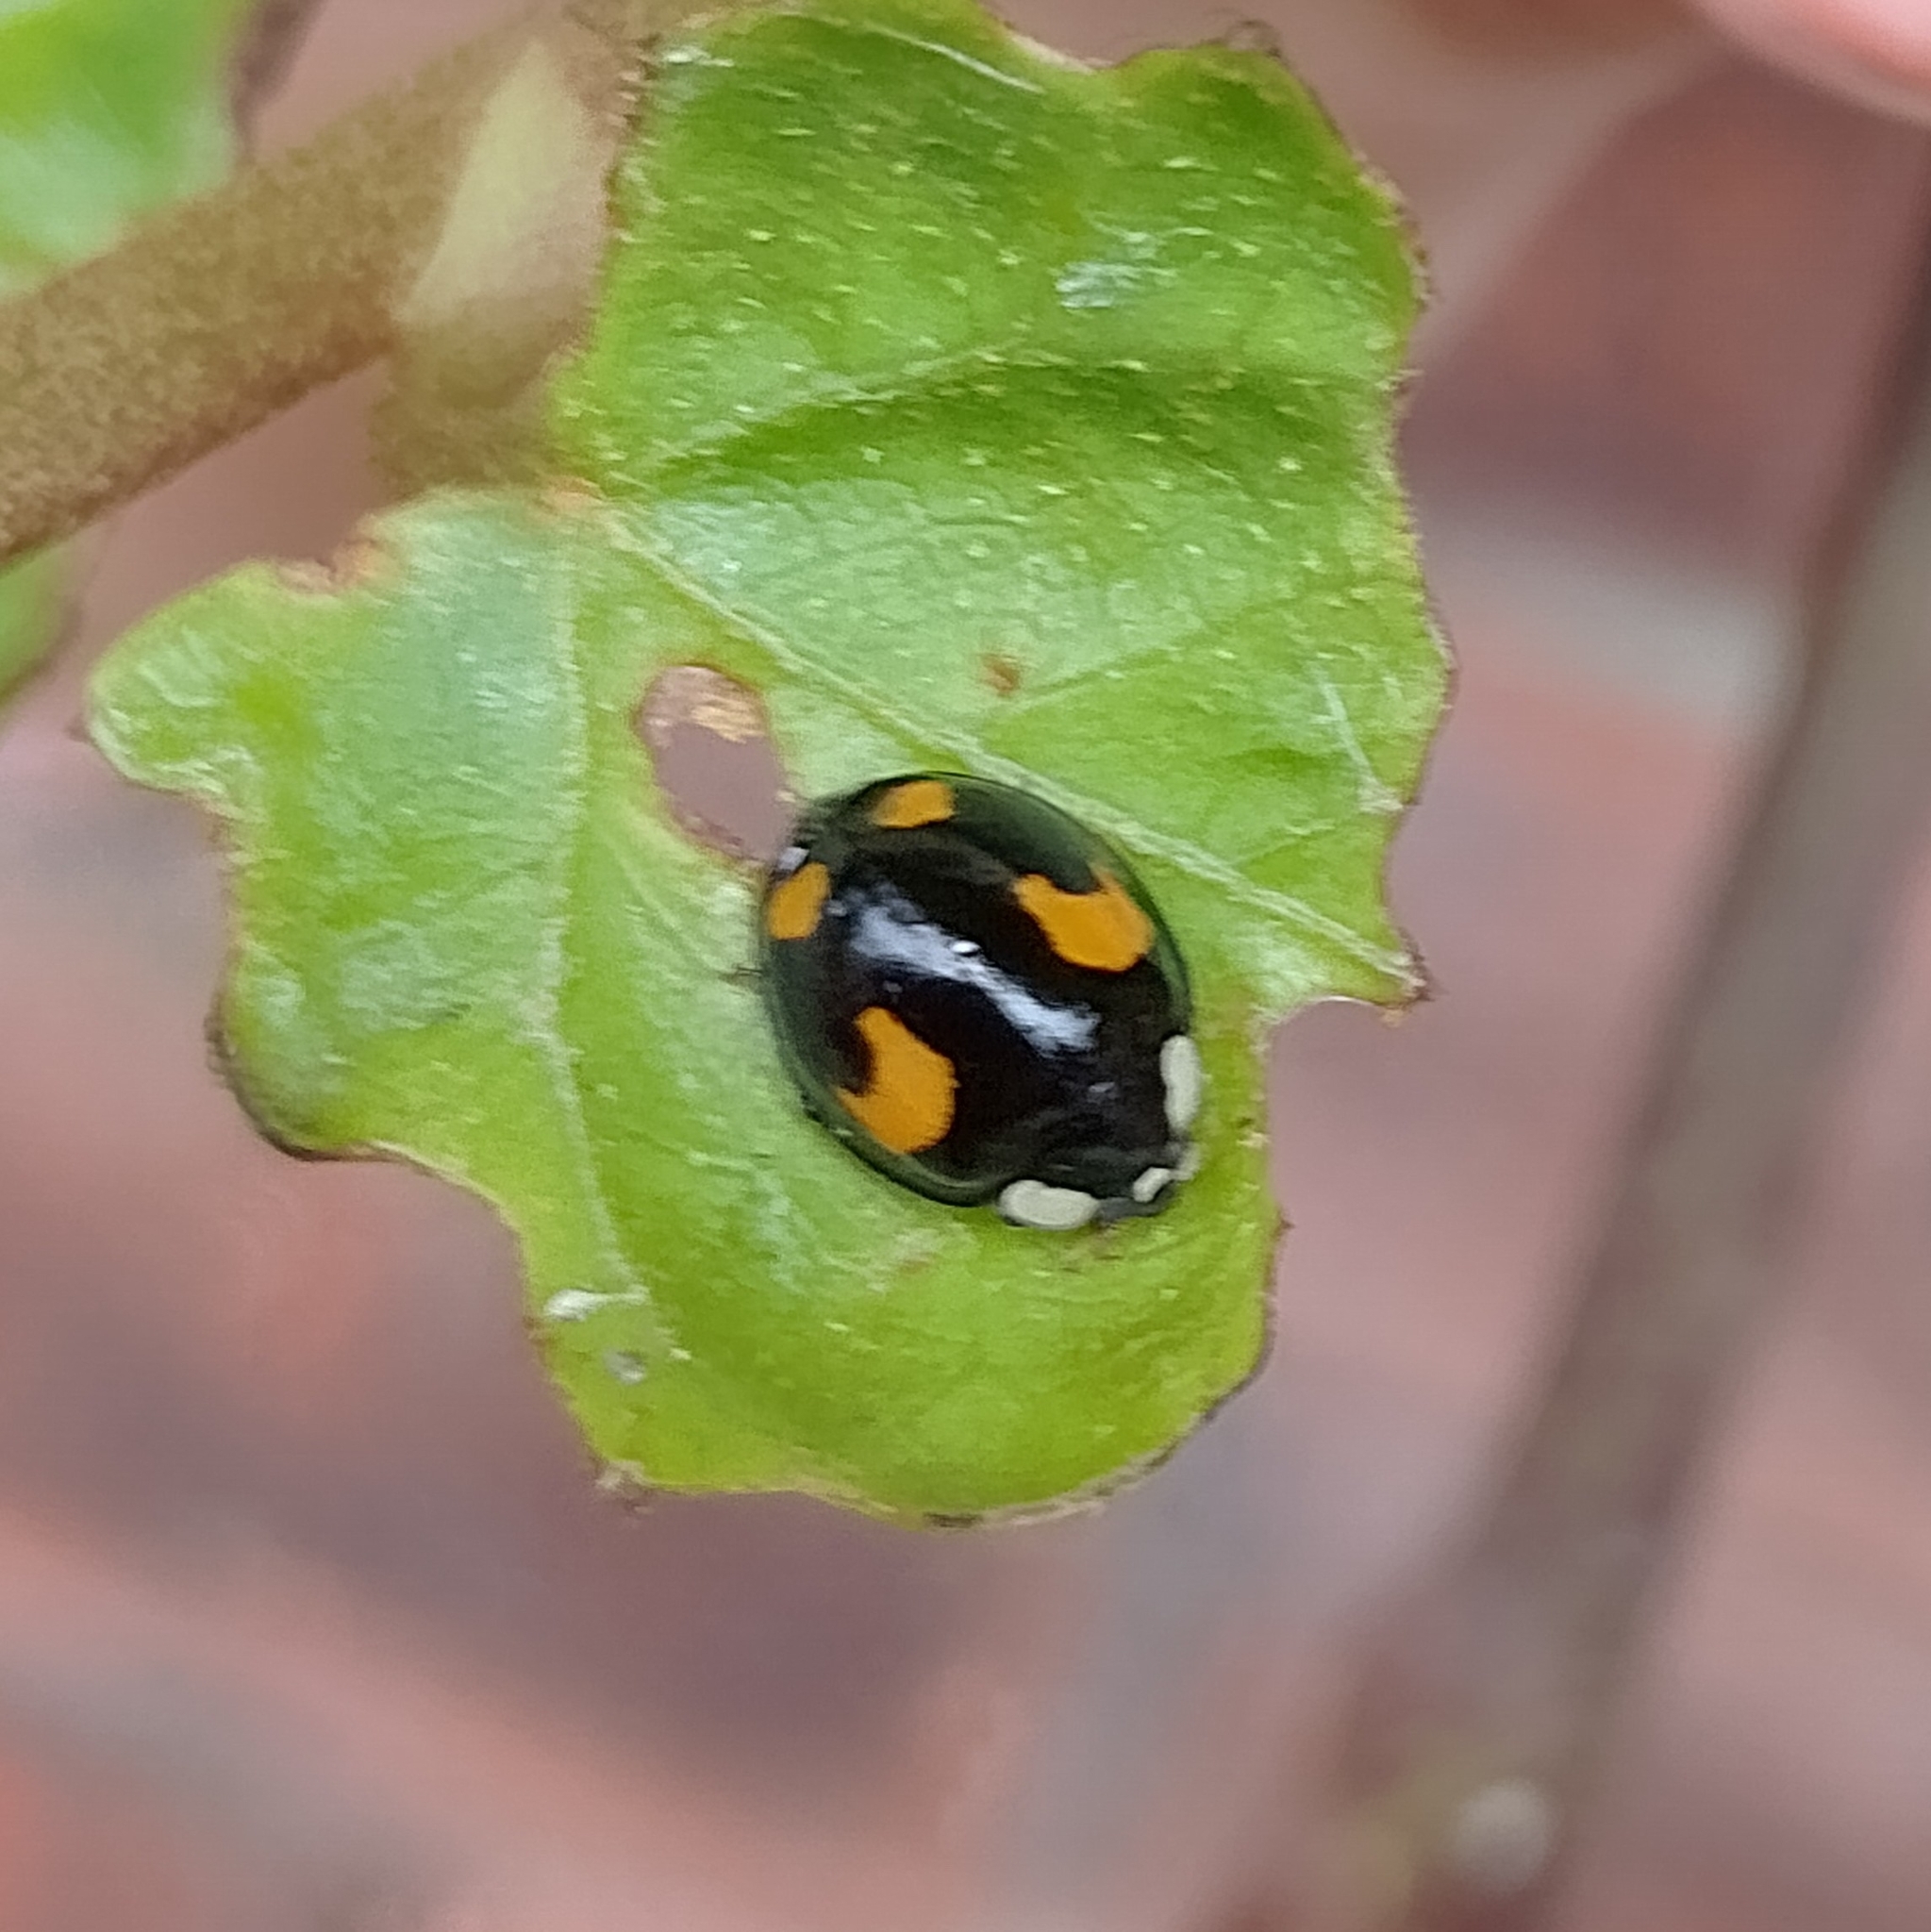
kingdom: Animalia
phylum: Arthropoda
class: Insecta
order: Coleoptera
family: Coccinellidae
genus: Harmonia
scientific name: Harmonia axyridis
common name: Harlequin ladybird
